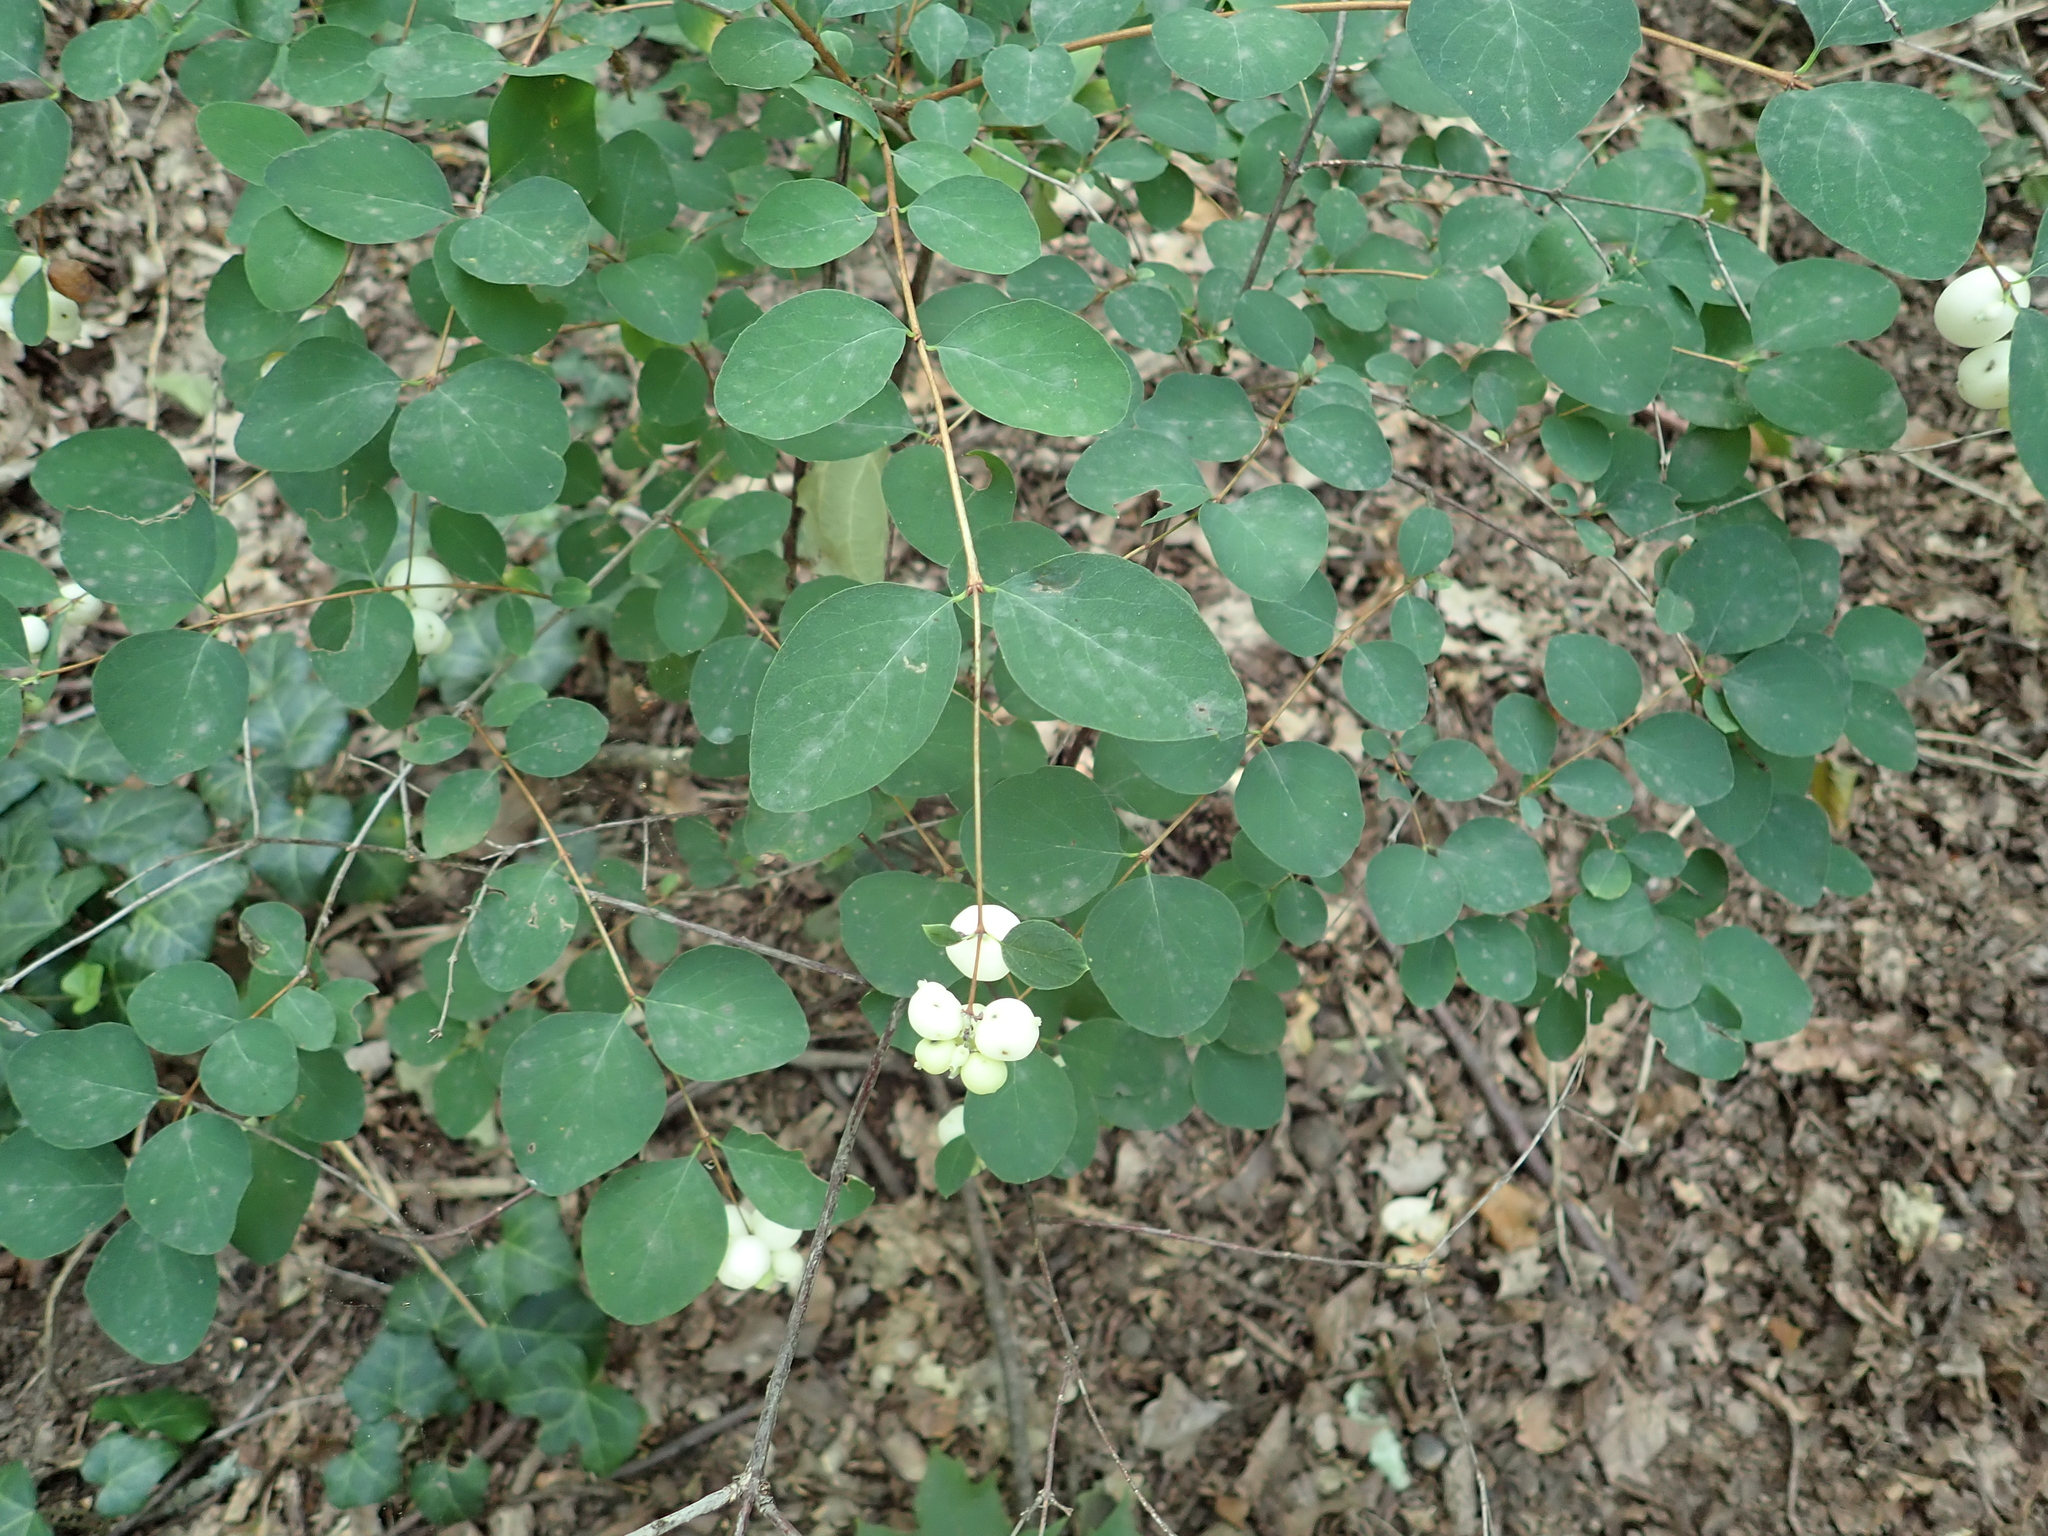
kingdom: Plantae
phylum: Tracheophyta
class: Magnoliopsida
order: Dipsacales
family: Caprifoliaceae
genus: Symphoricarpos
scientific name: Symphoricarpos albus
